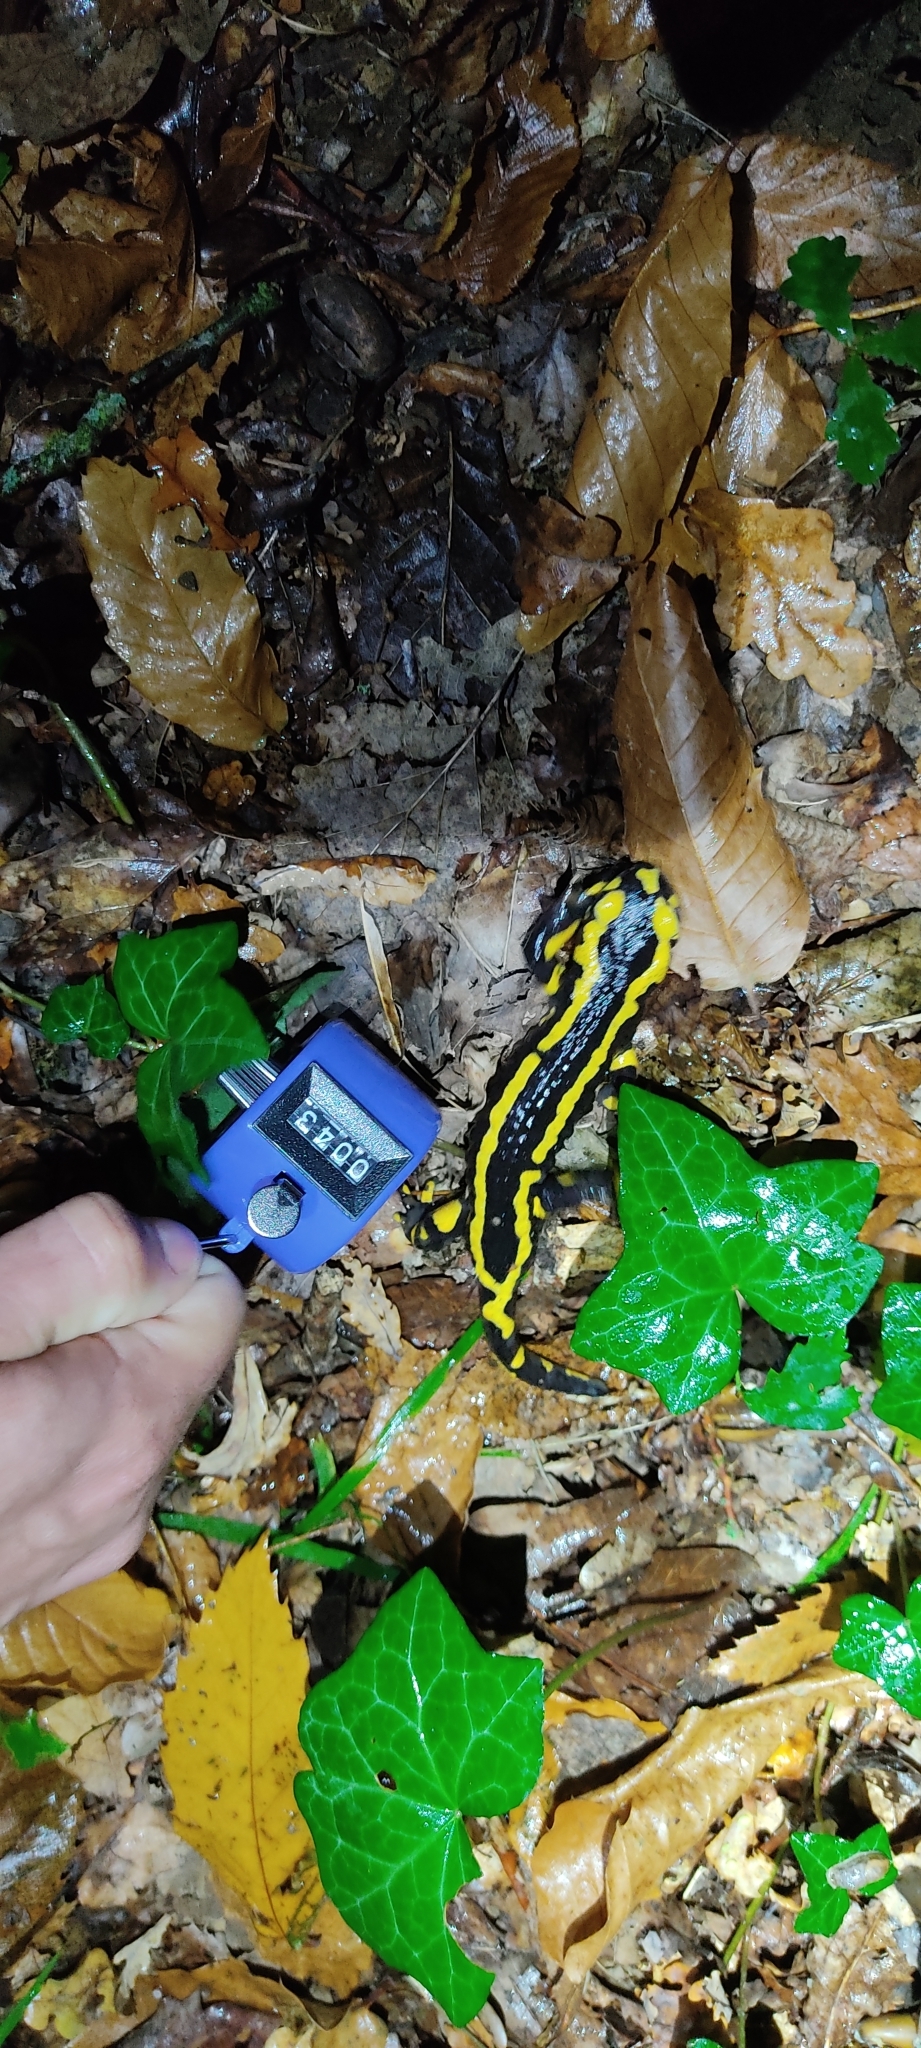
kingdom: Animalia
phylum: Chordata
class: Amphibia
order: Caudata
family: Salamandridae
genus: Salamandra
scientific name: Salamandra salamandra
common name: Fire salamander
